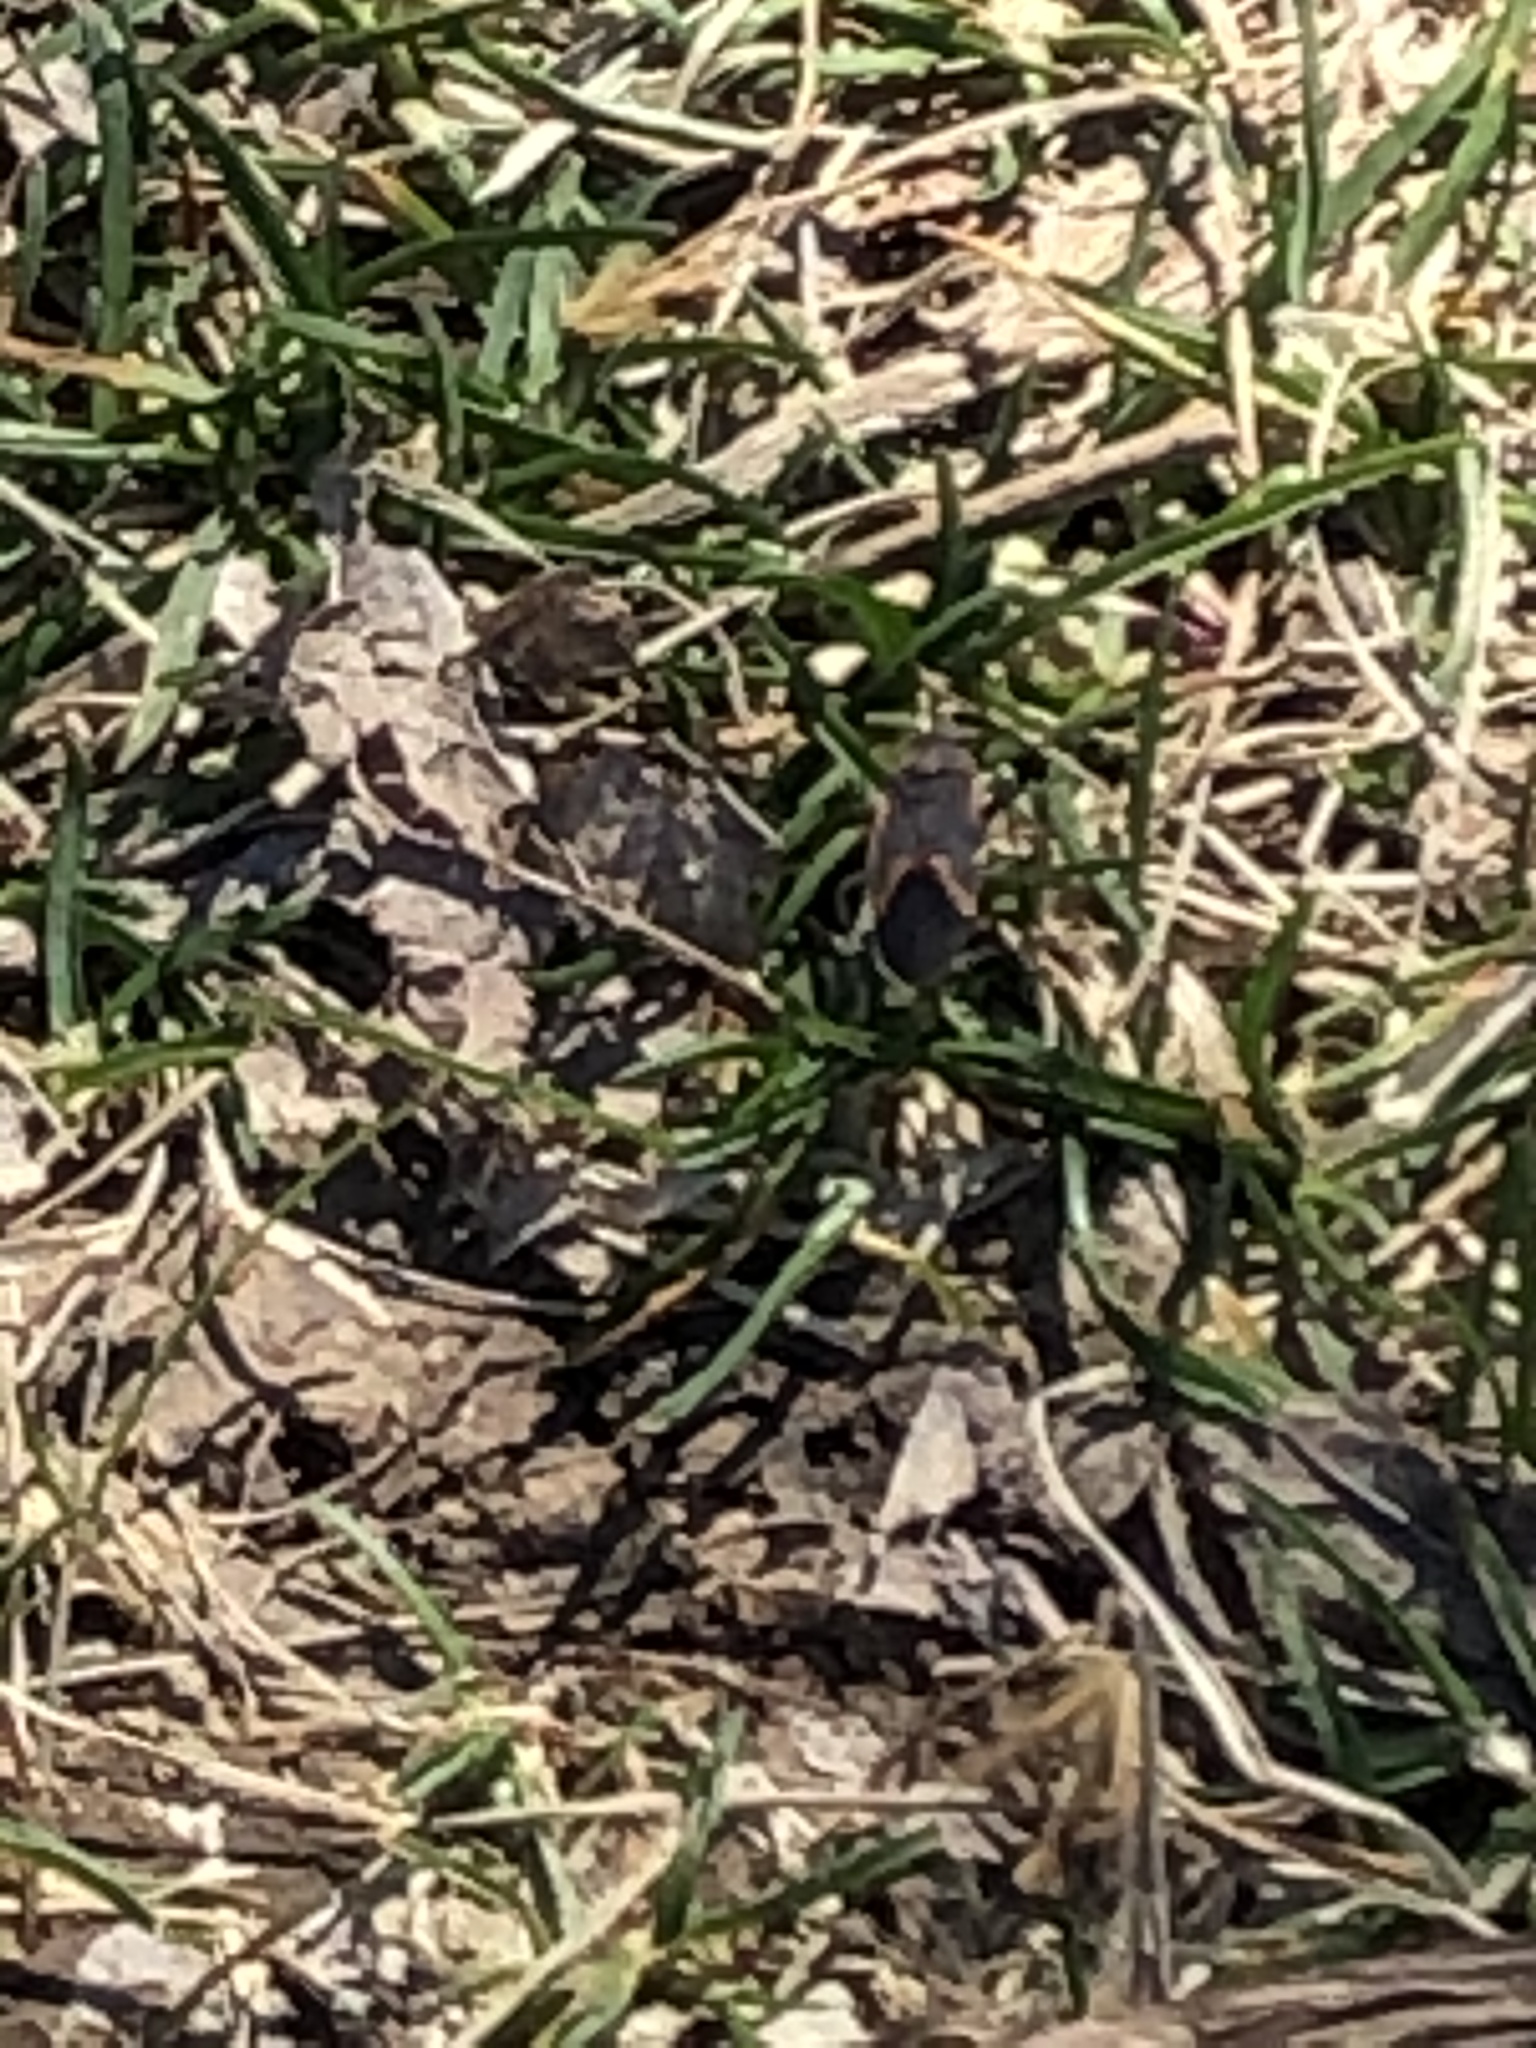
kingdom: Animalia
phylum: Arthropoda
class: Insecta
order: Hemiptera
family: Rhopalidae
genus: Boisea
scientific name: Boisea trivittata
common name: Boxelder bug
